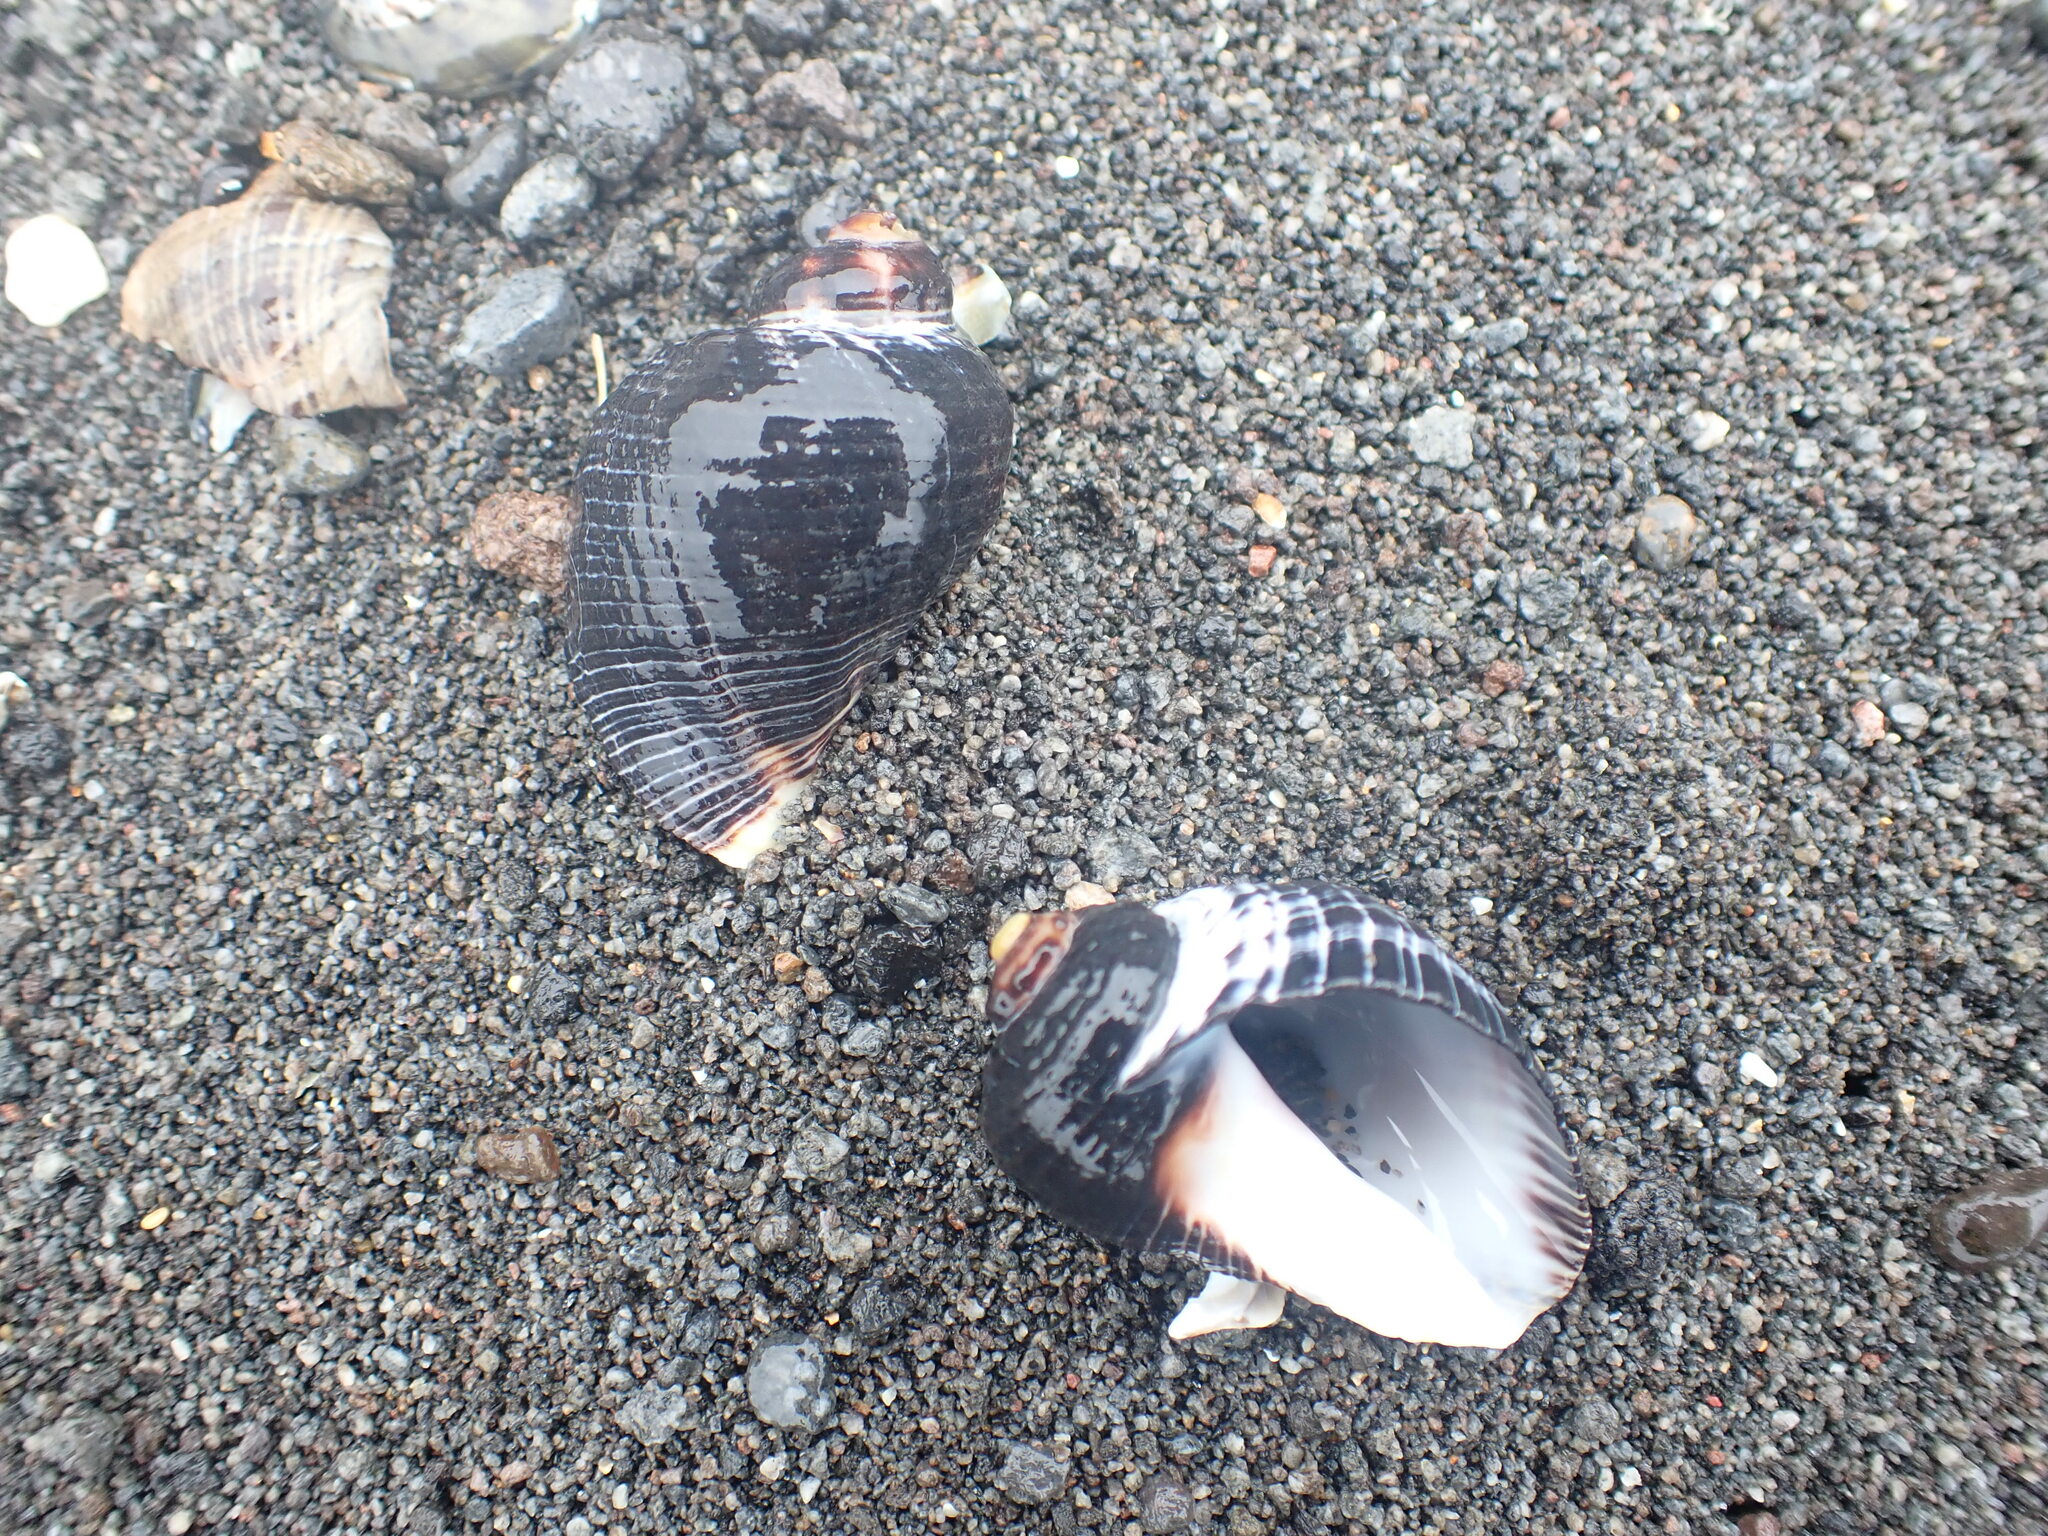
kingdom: Animalia
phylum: Mollusca
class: Gastropoda
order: Neogastropoda
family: Muricidae
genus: Haustrum
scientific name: Haustrum haustorium
